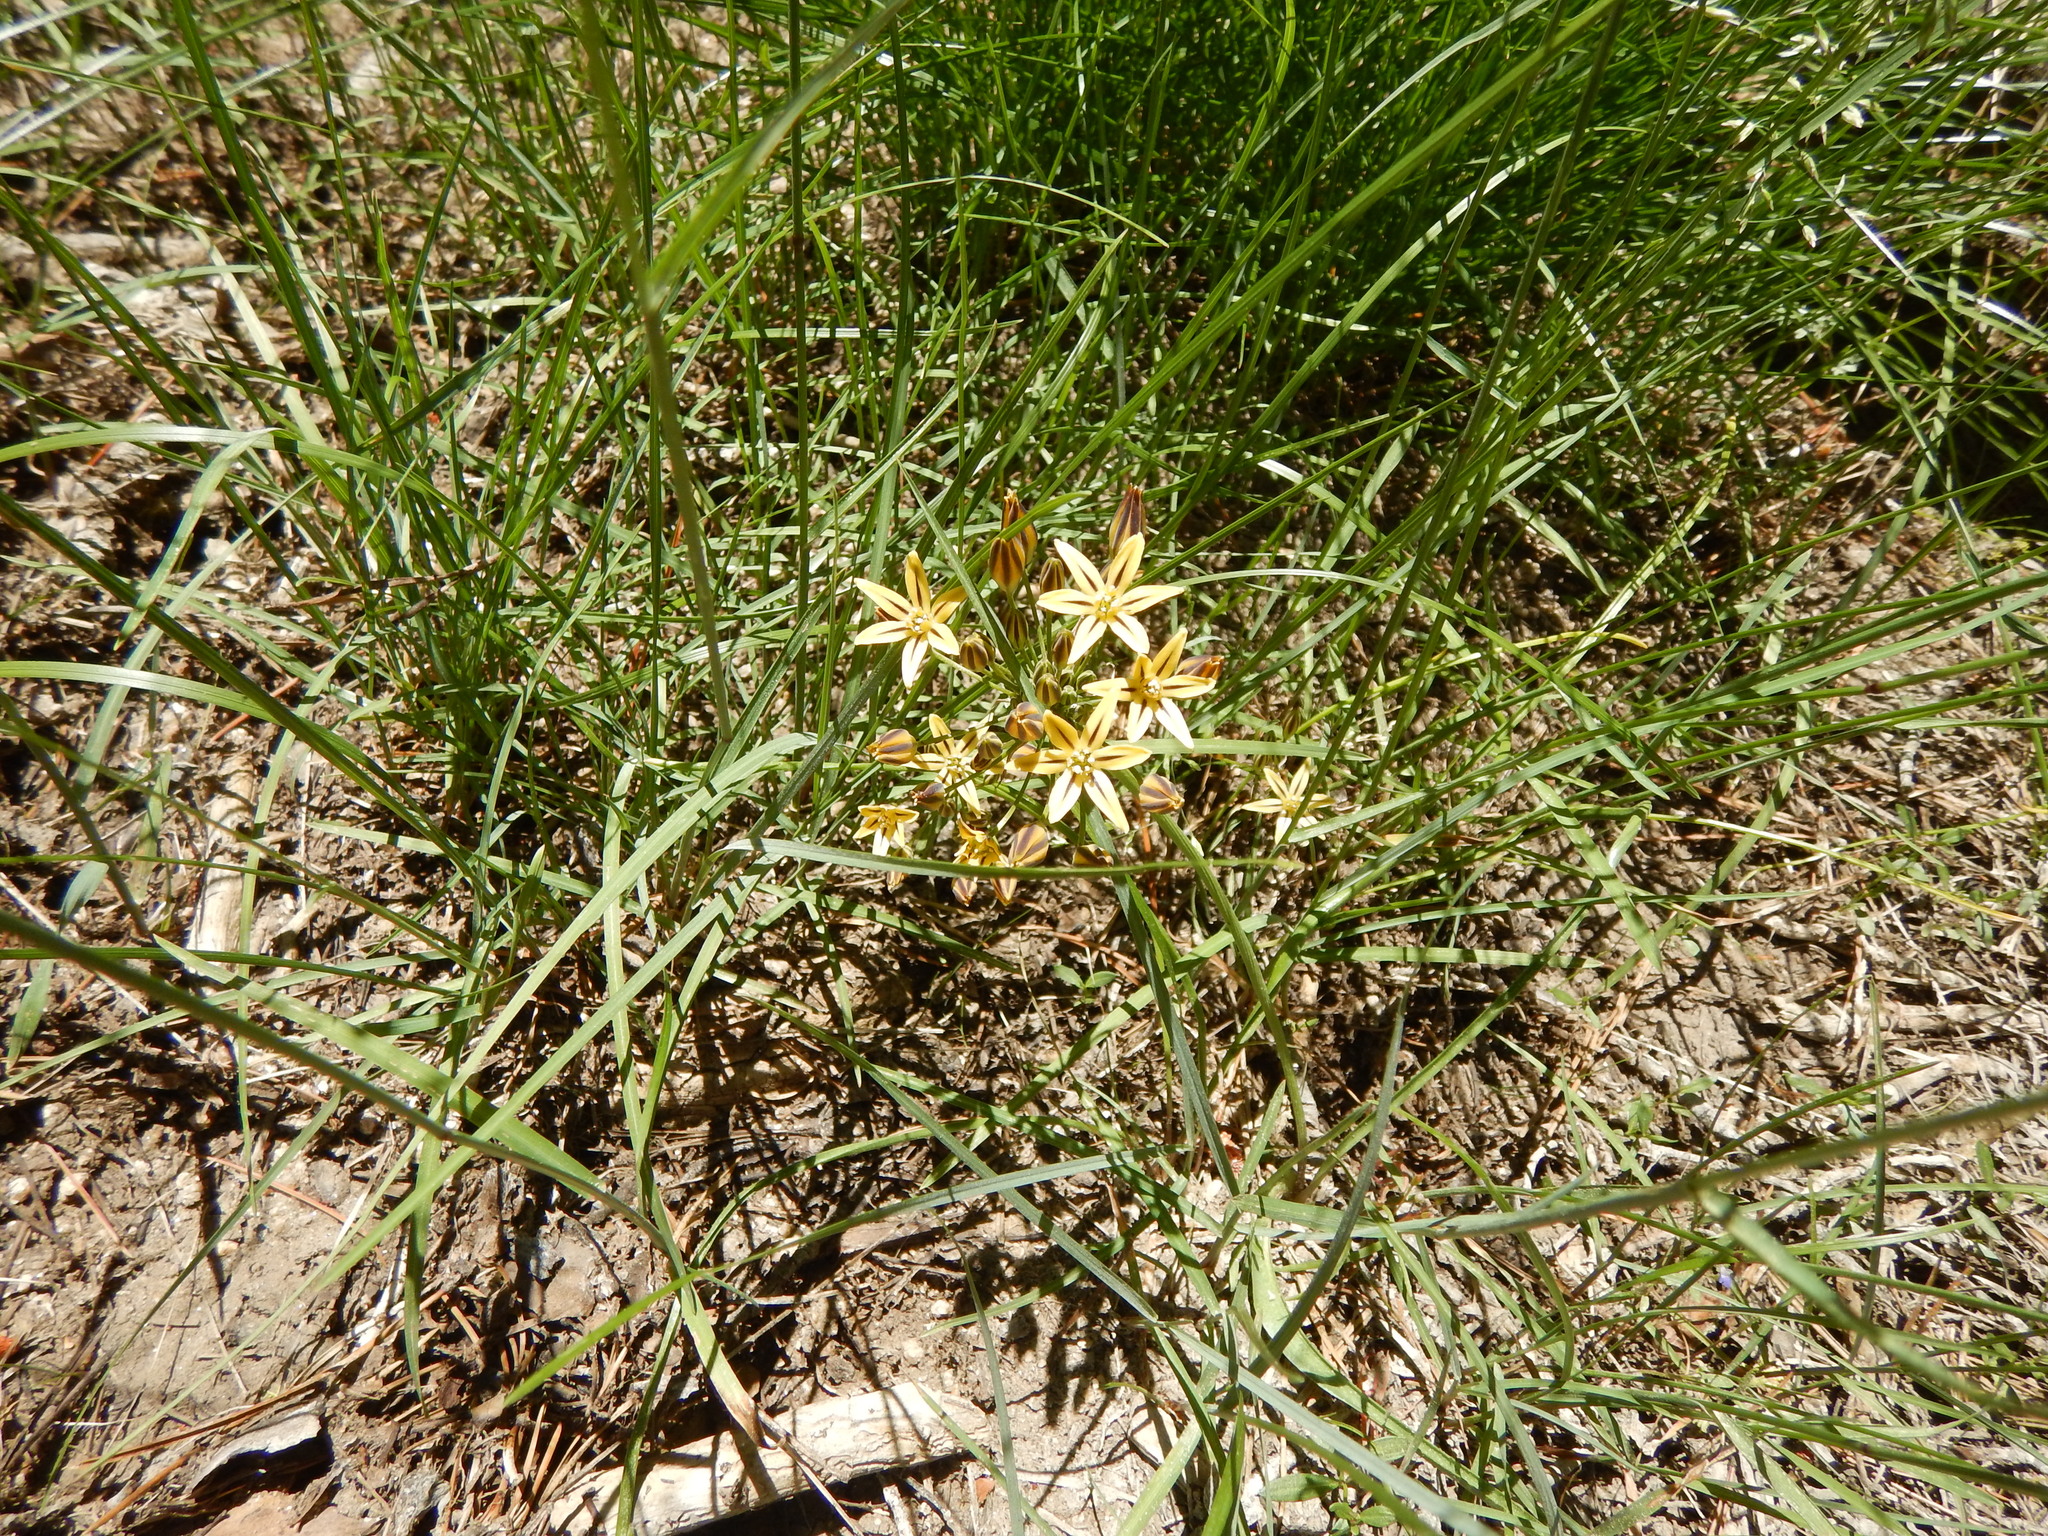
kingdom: Plantae
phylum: Tracheophyta
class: Liliopsida
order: Asparagales
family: Asparagaceae
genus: Triteleia
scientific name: Triteleia ixioides
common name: Yellow-brodiaea
